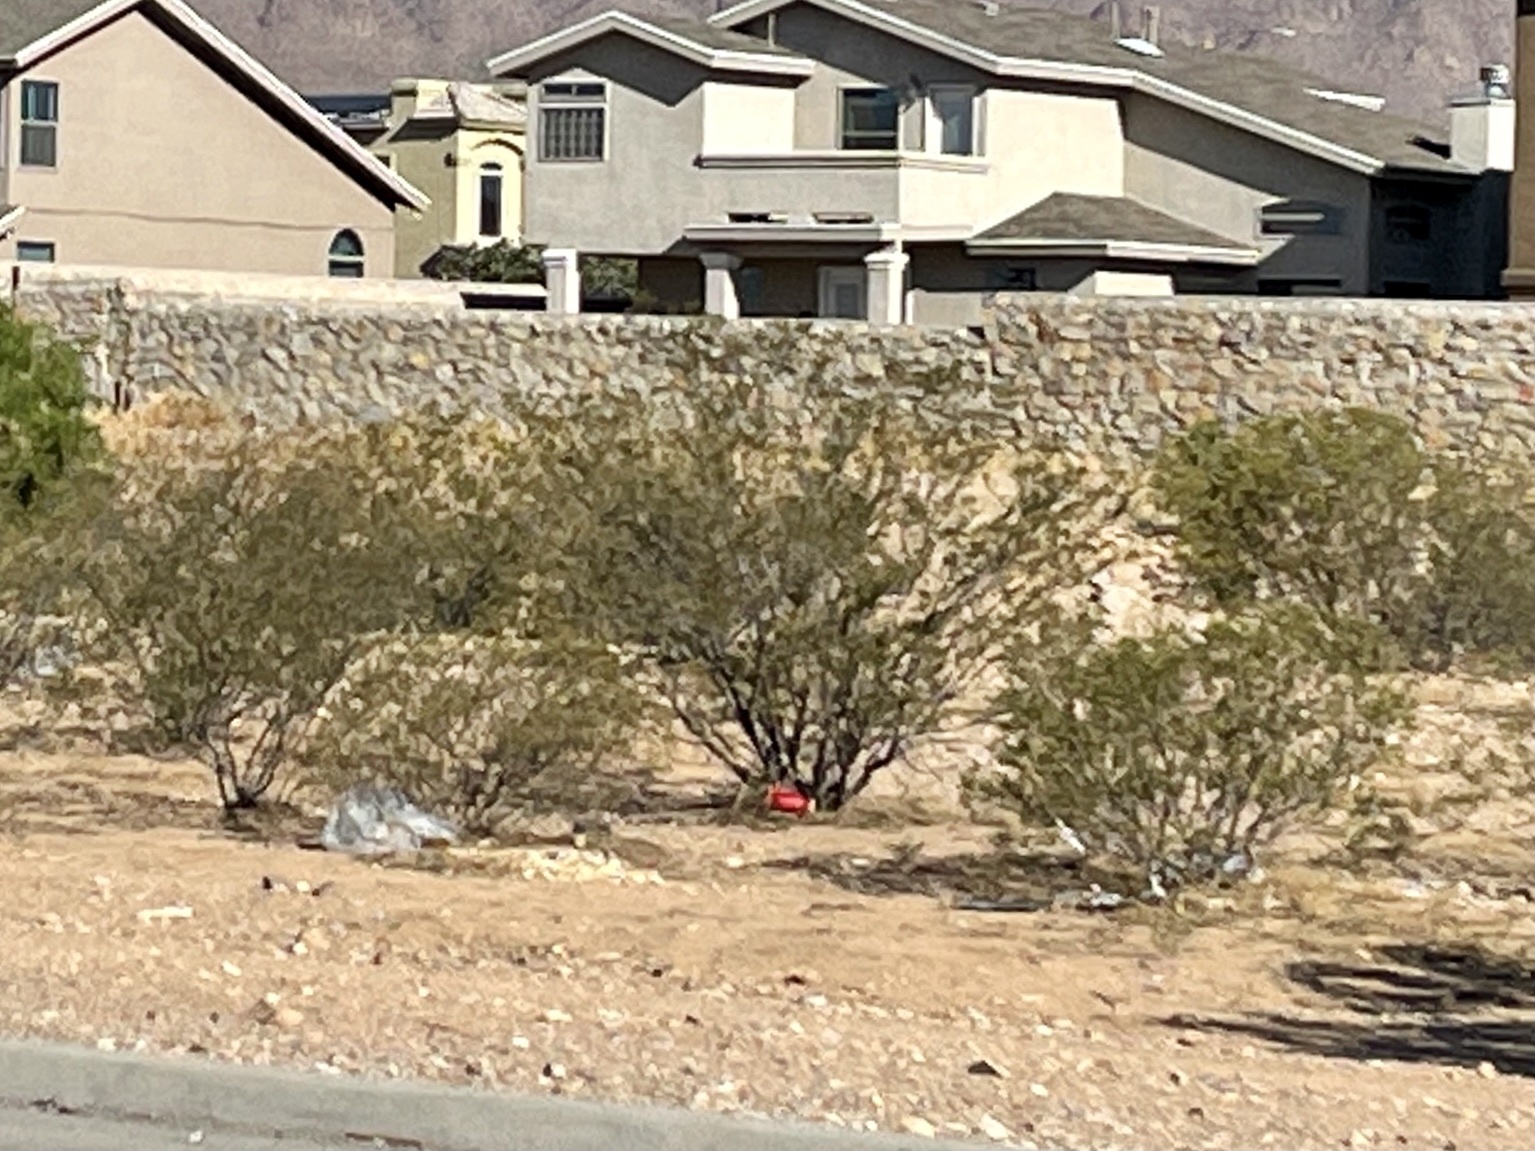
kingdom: Plantae
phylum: Tracheophyta
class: Magnoliopsida
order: Zygophyllales
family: Zygophyllaceae
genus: Larrea
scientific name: Larrea tridentata
